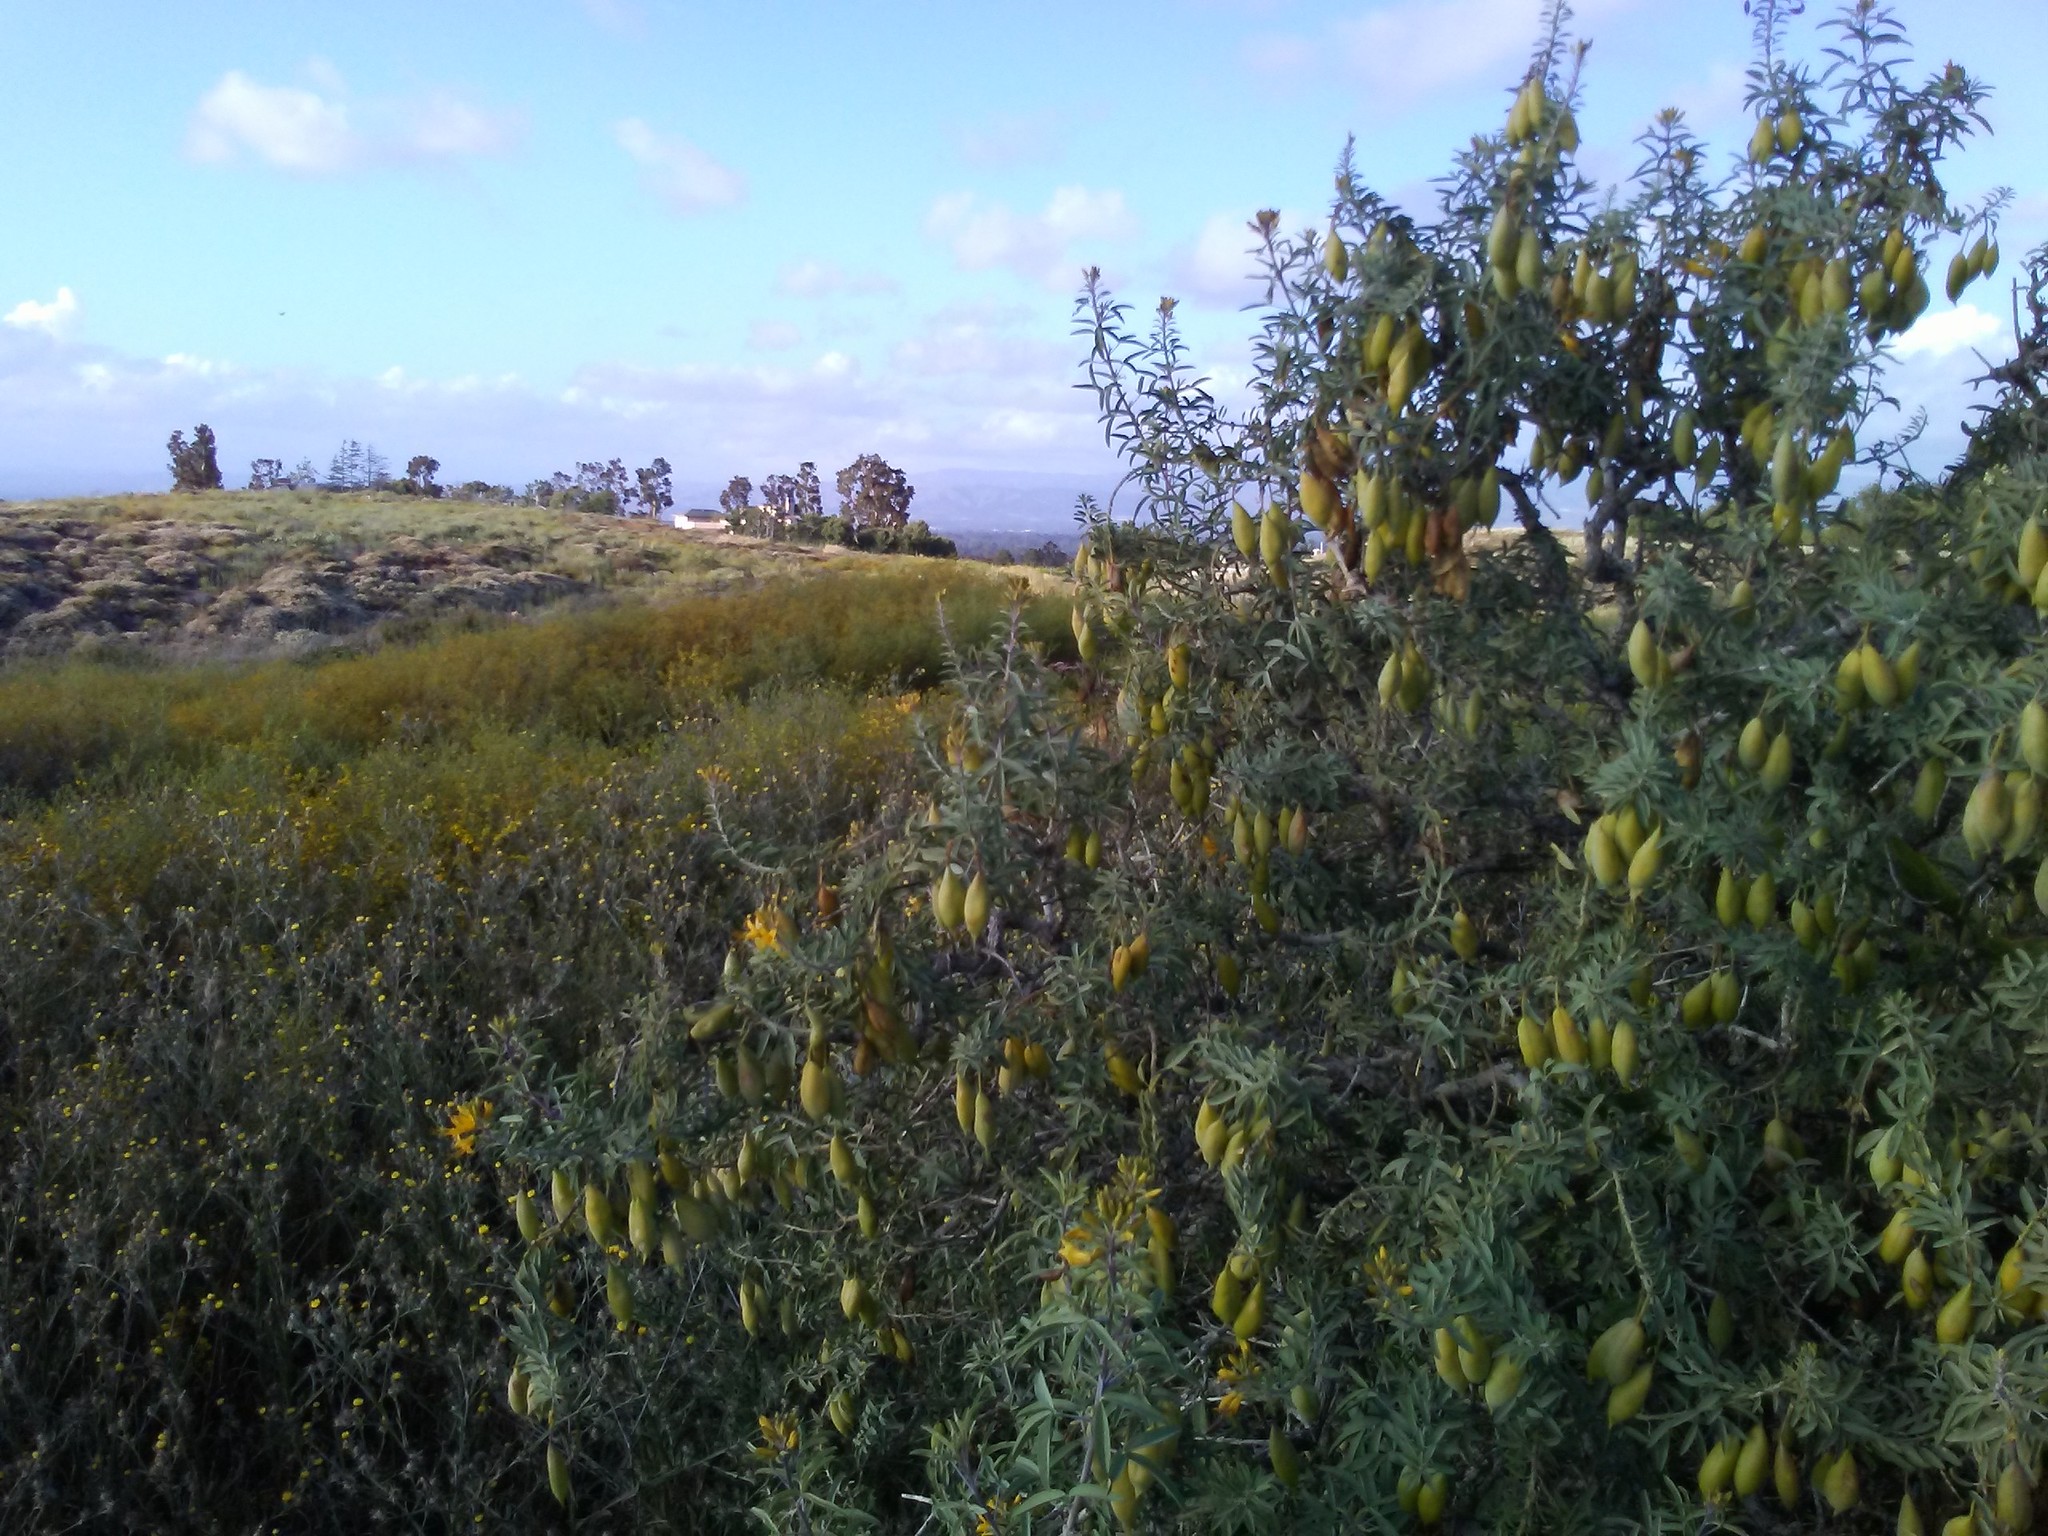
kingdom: Plantae
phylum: Tracheophyta
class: Magnoliopsida
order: Brassicales
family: Cleomaceae
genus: Cleomella
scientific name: Cleomella arborea
